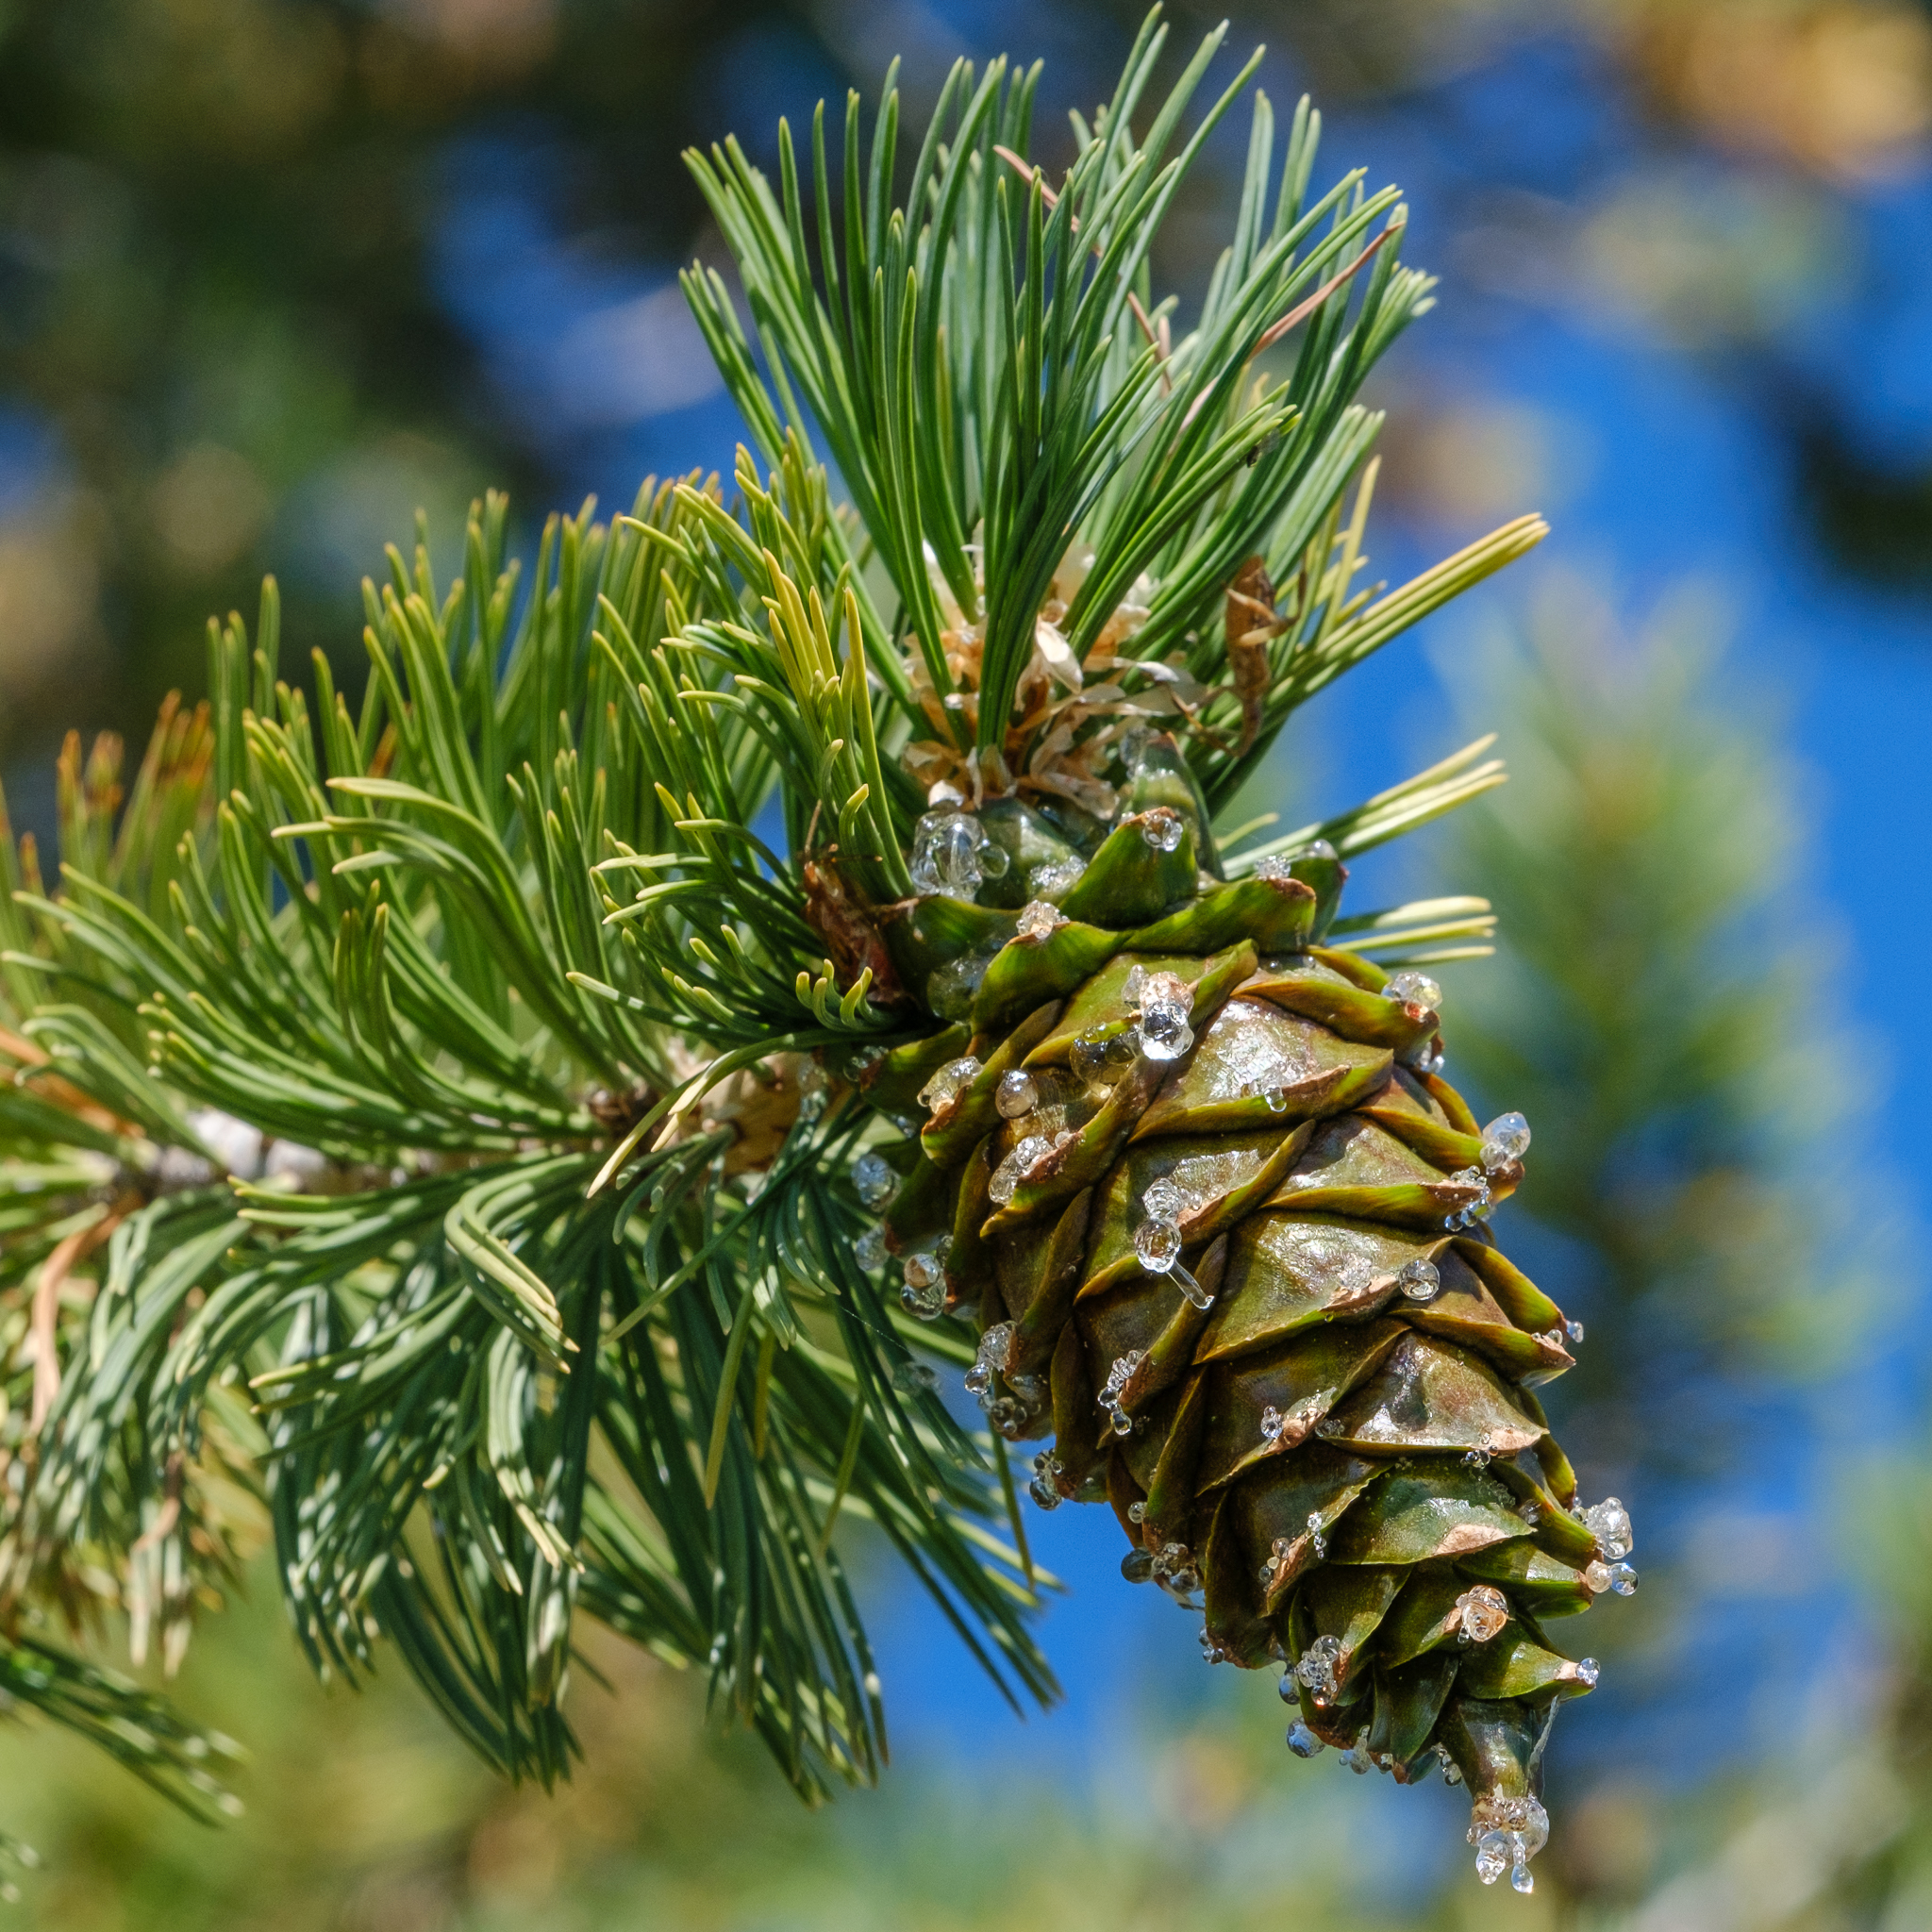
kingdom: Plantae
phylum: Tracheophyta
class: Pinopsida
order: Pinales
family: Pinaceae
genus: Pinus
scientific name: Pinus flexilis
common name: Limber pine
